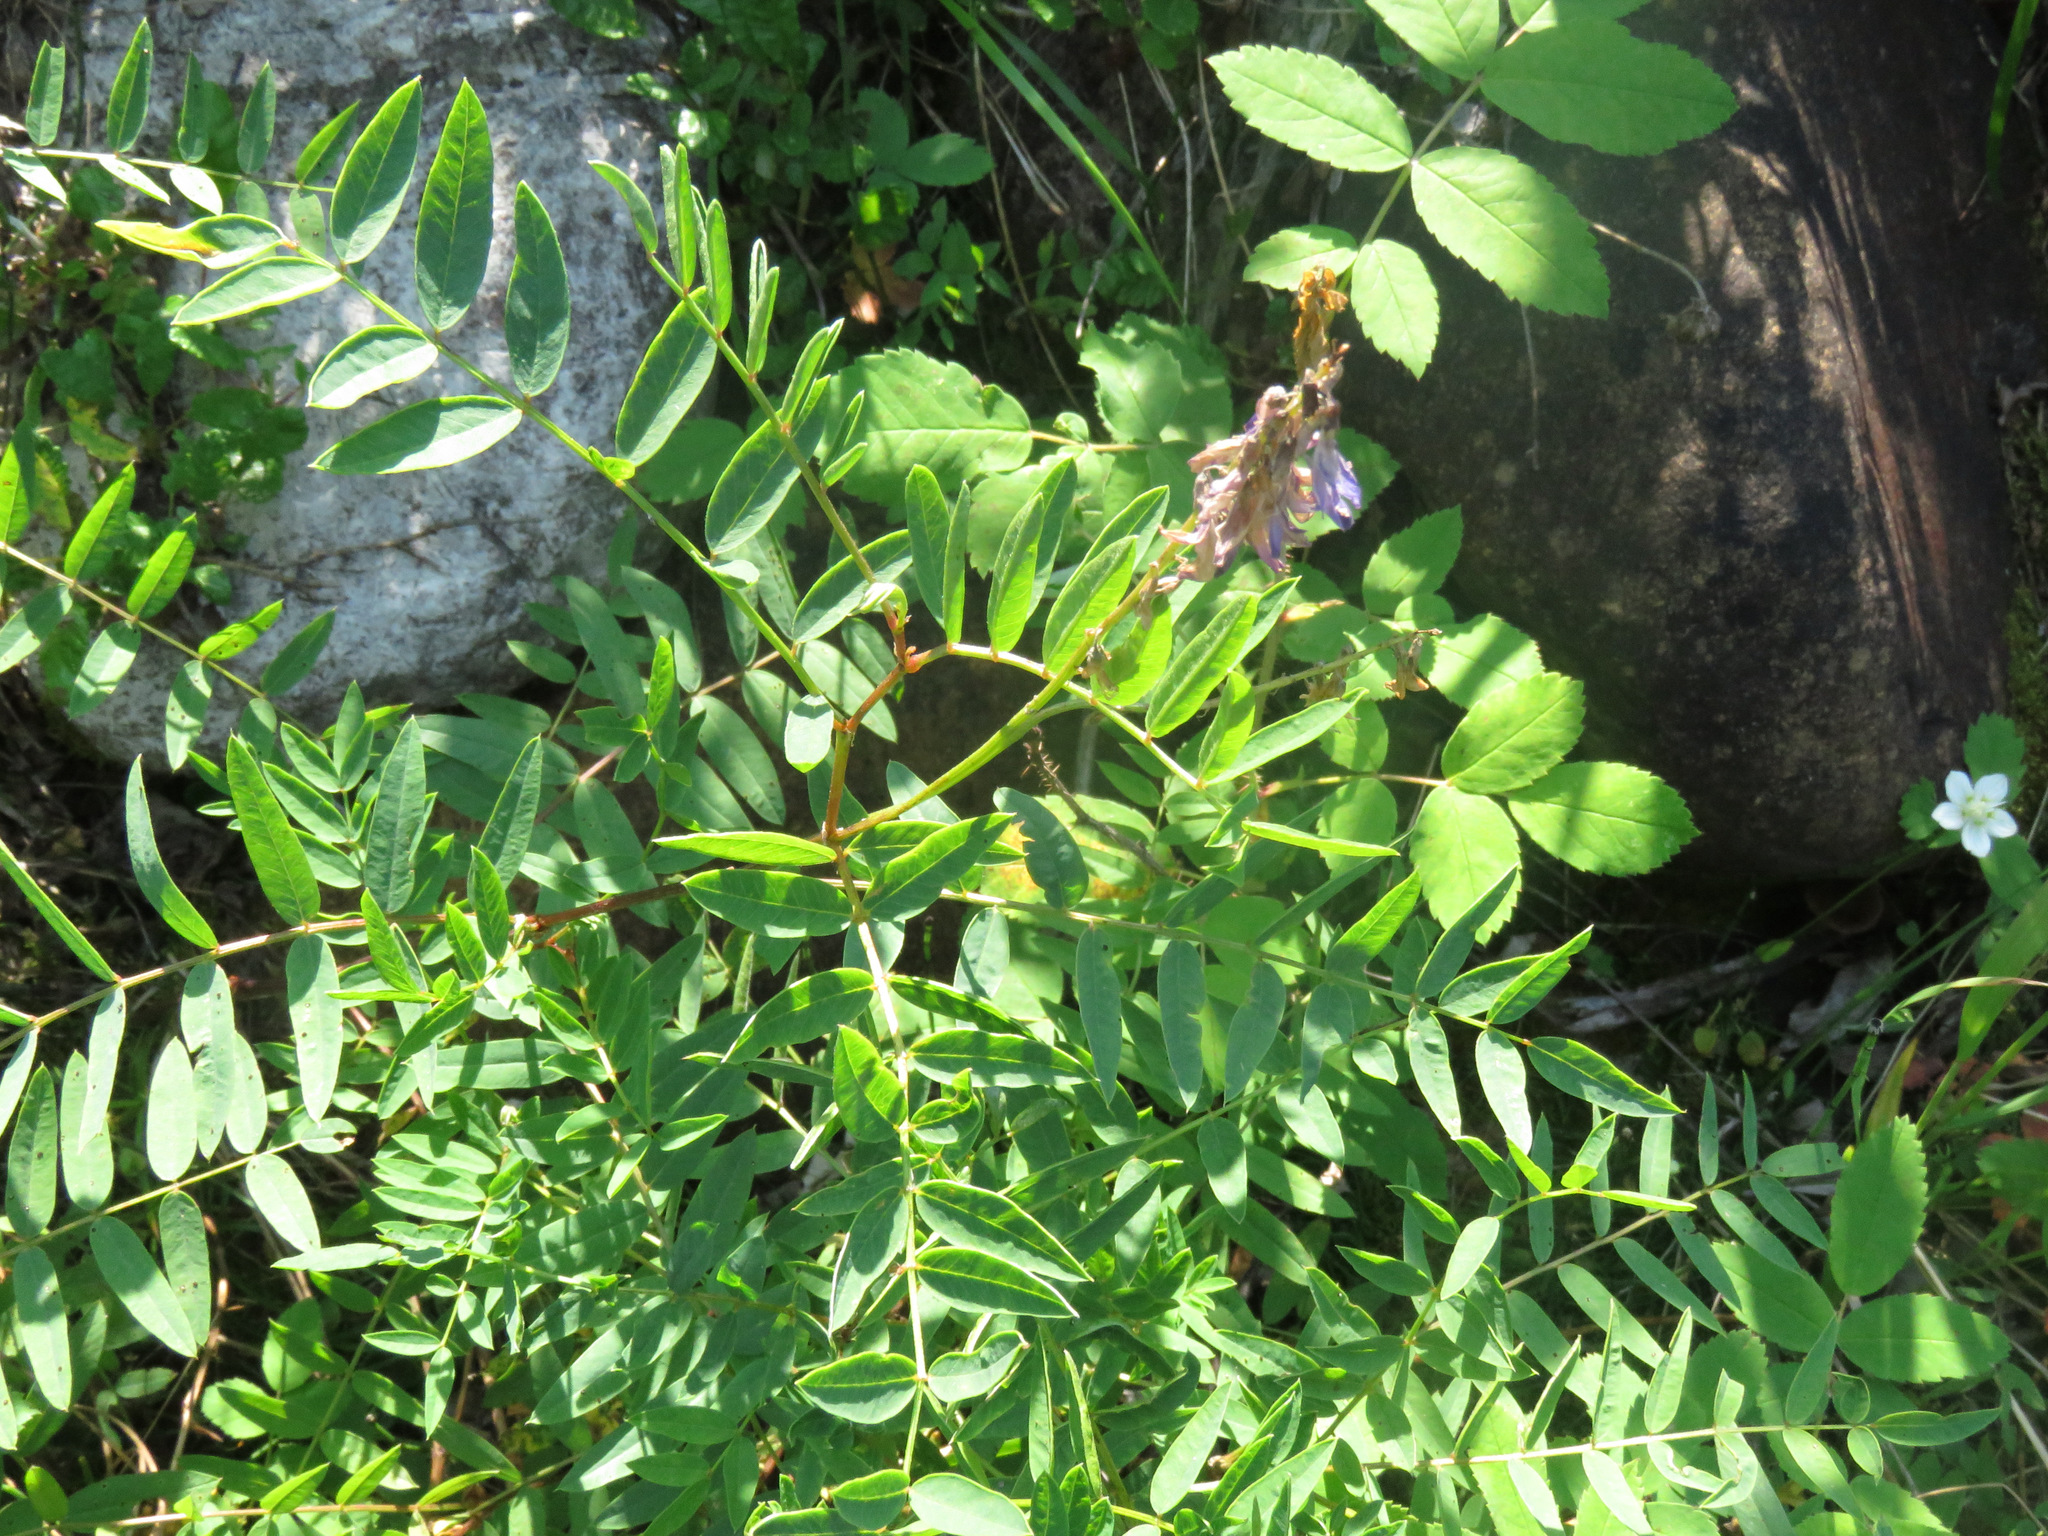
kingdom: Plantae
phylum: Tracheophyta
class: Magnoliopsida
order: Fabales
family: Fabaceae
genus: Hedysarum
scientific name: Hedysarum alpinum
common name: Alpine sweet-vetch
